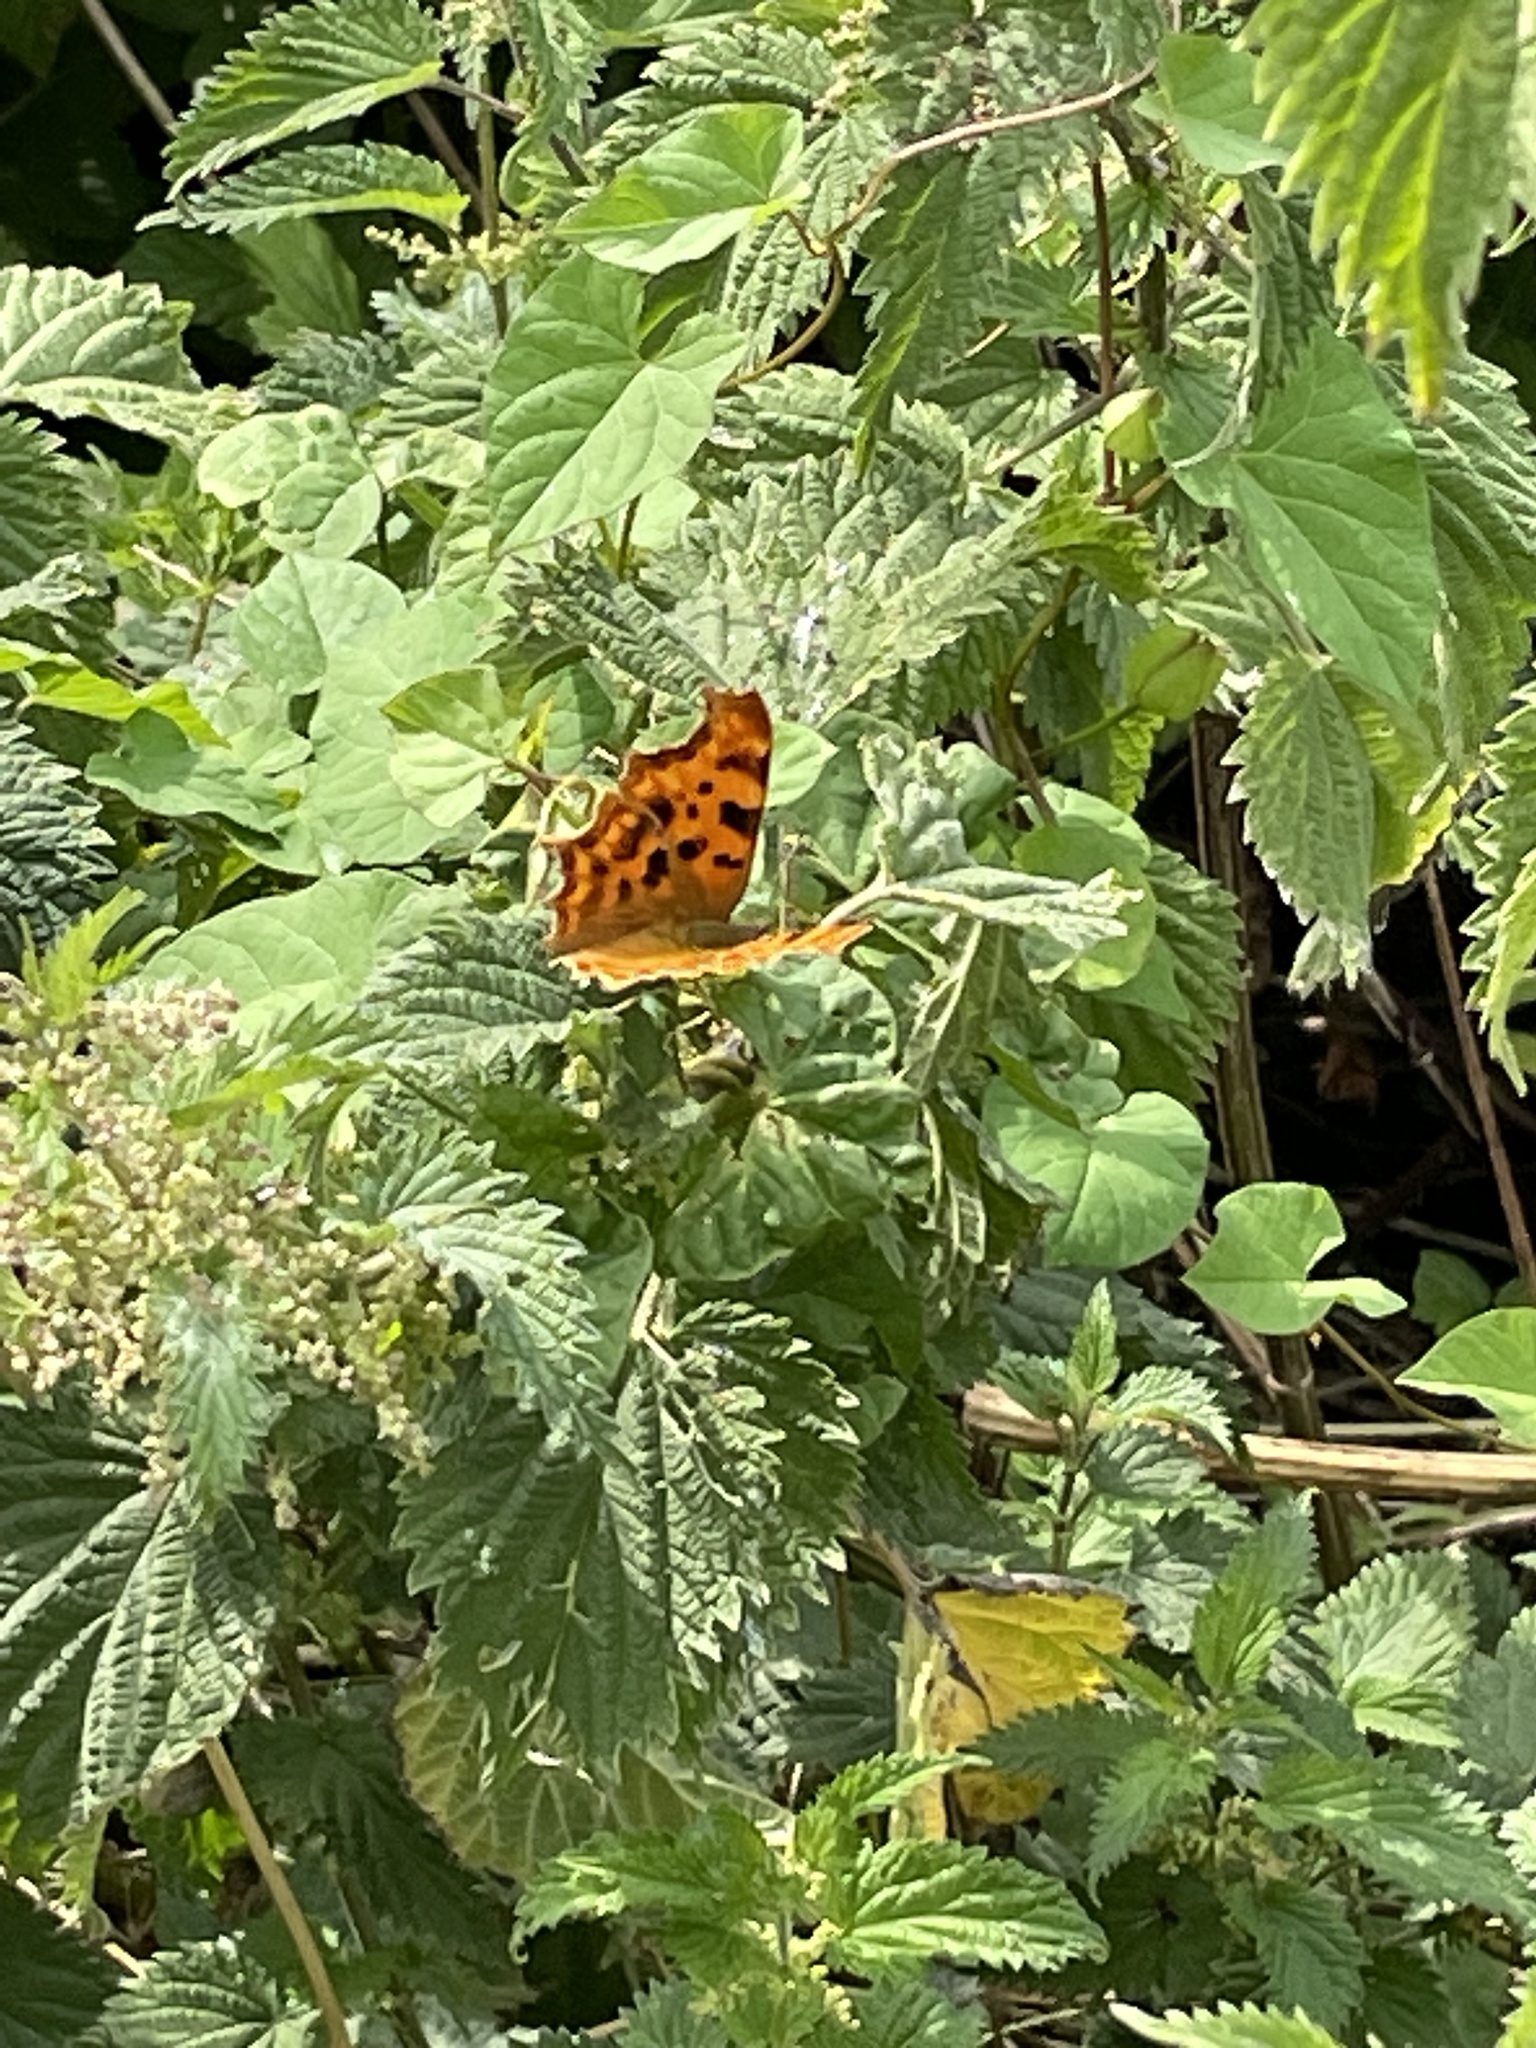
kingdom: Animalia
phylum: Arthropoda
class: Insecta
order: Lepidoptera
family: Nymphalidae
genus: Polygonia
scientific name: Polygonia c-album
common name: Comma
